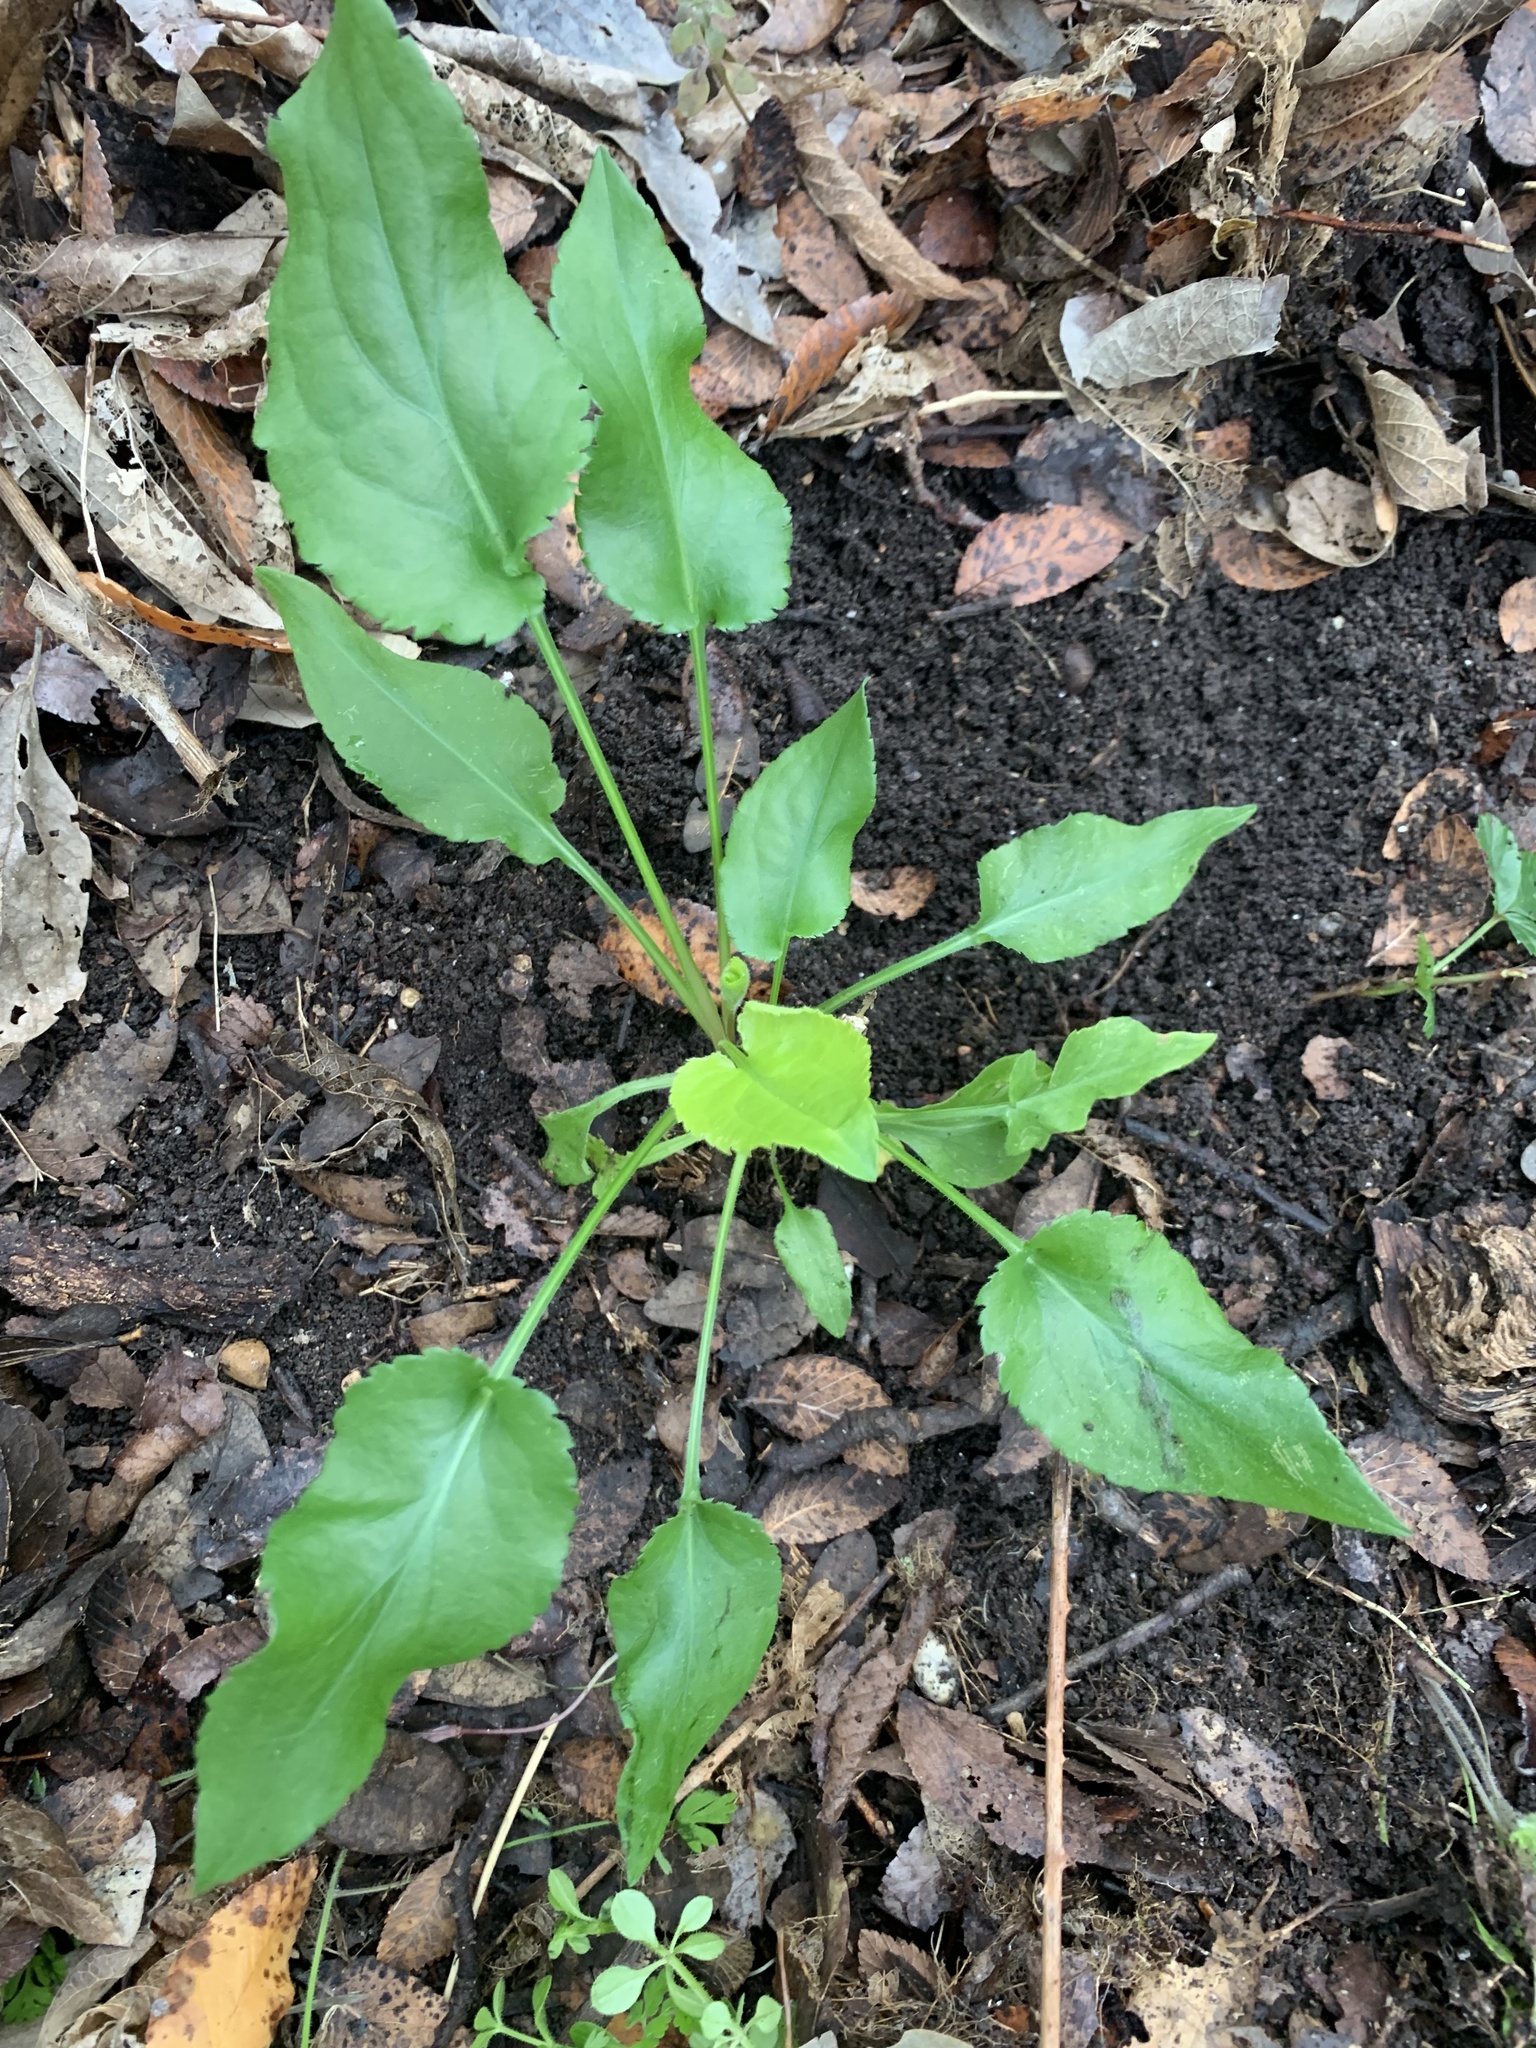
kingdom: Plantae
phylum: Tracheophyta
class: Magnoliopsida
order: Asterales
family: Asteraceae
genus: Symphyotrichum
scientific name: Symphyotrichum drummondii
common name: Drummond's aster
